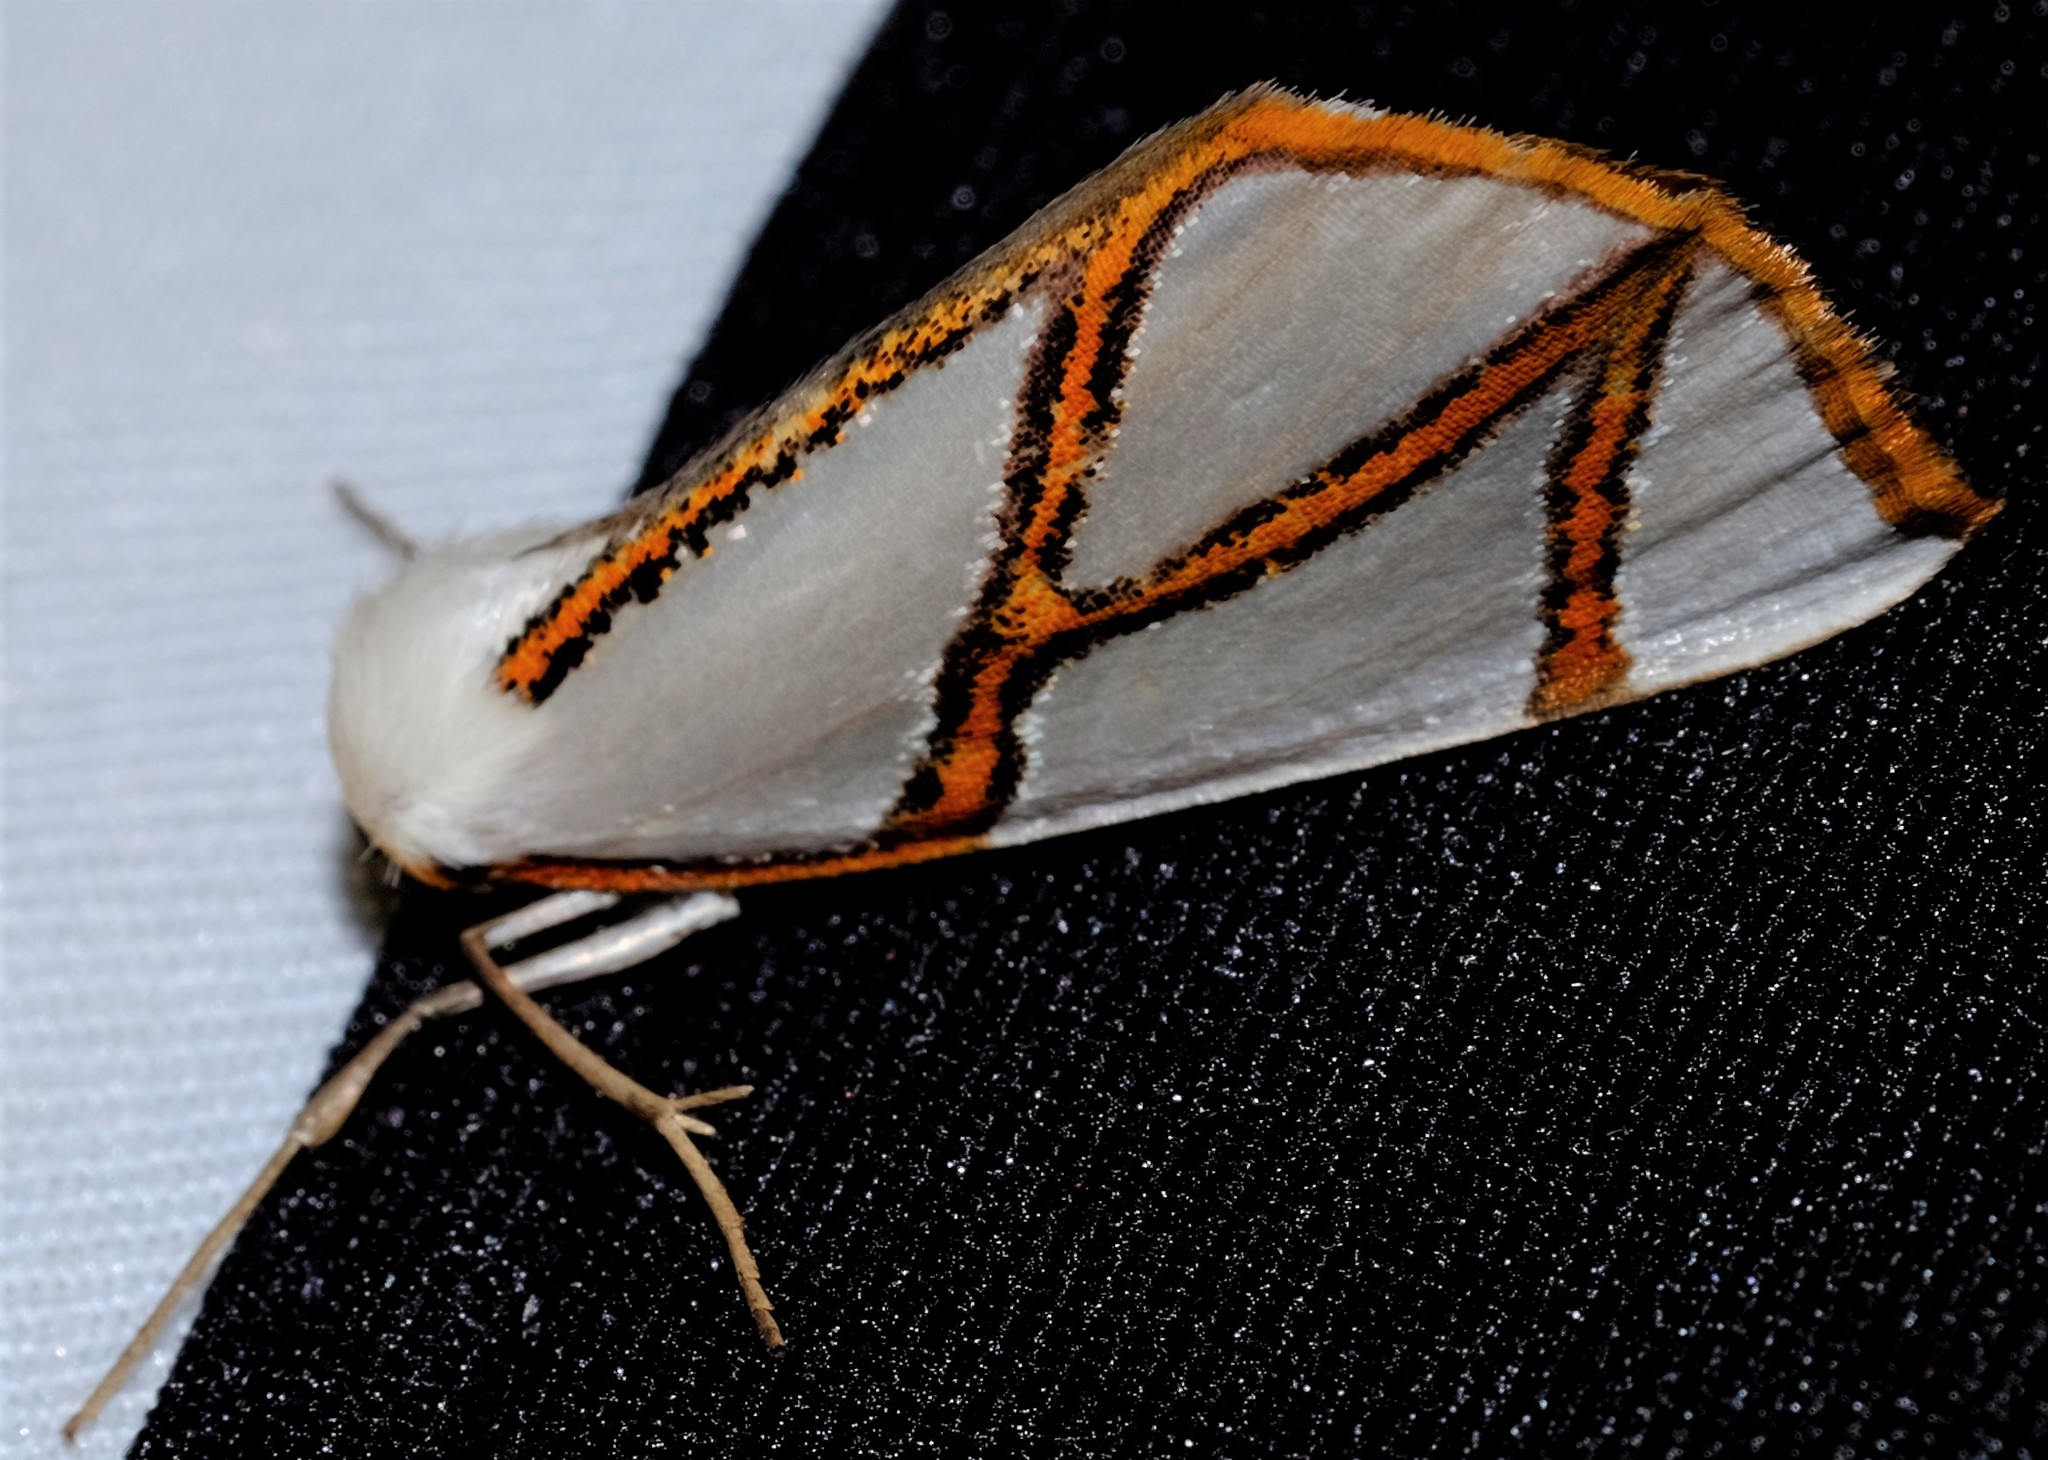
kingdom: Animalia
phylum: Arthropoda
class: Insecta
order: Lepidoptera
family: Geometridae
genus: Thalaina
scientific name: Thalaina clara
